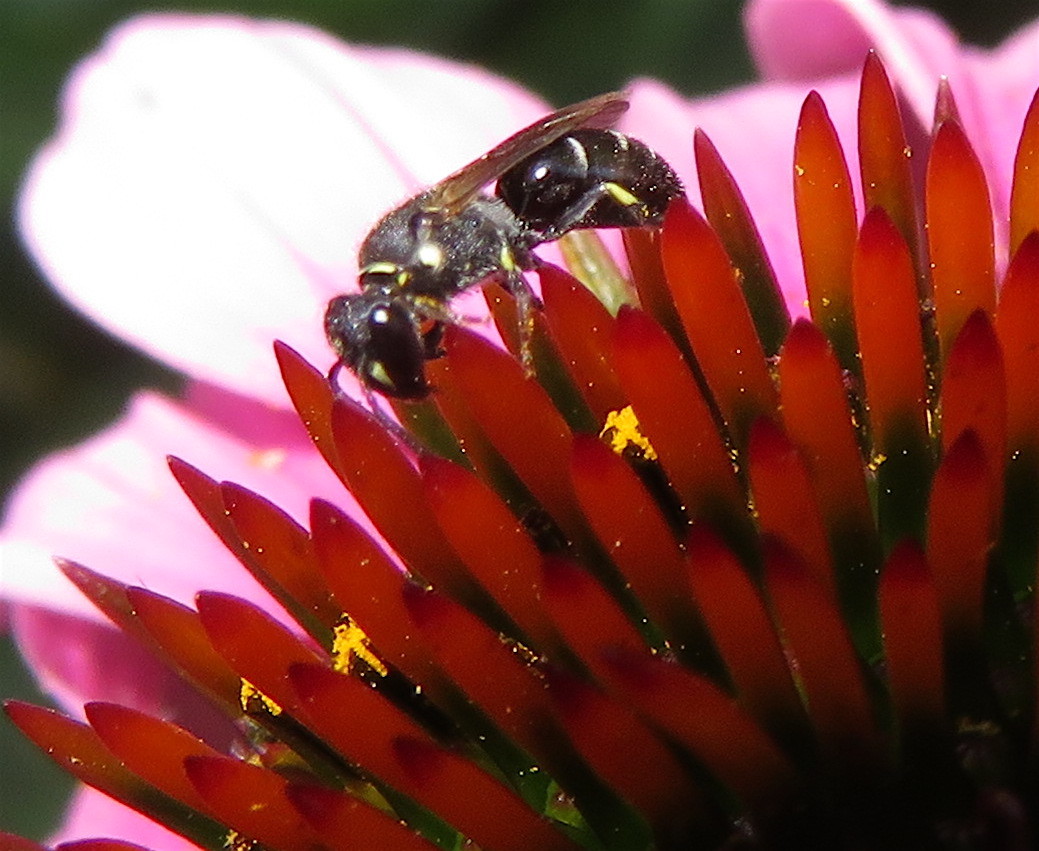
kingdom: Animalia
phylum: Arthropoda
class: Insecta
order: Hymenoptera
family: Colletidae
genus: Hylaeus
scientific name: Hylaeus
